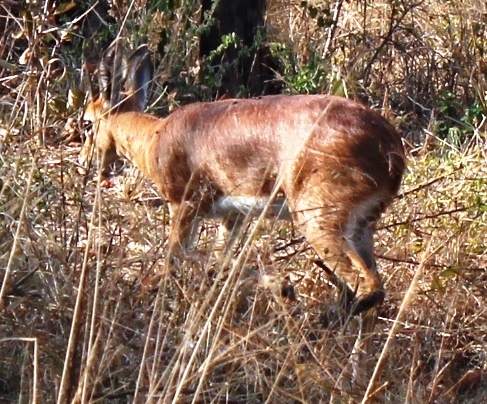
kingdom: Animalia
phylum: Chordata
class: Mammalia
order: Artiodactyla
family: Bovidae
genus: Raphicerus
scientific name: Raphicerus campestris
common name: Steenbok
